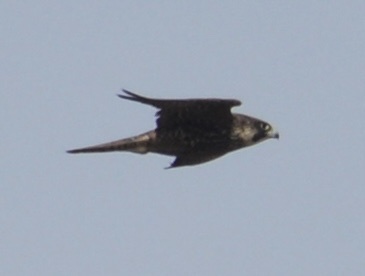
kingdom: Animalia
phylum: Chordata
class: Aves
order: Falconiformes
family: Falconidae
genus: Falco
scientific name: Falco peregrinus
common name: Peregrine falcon
